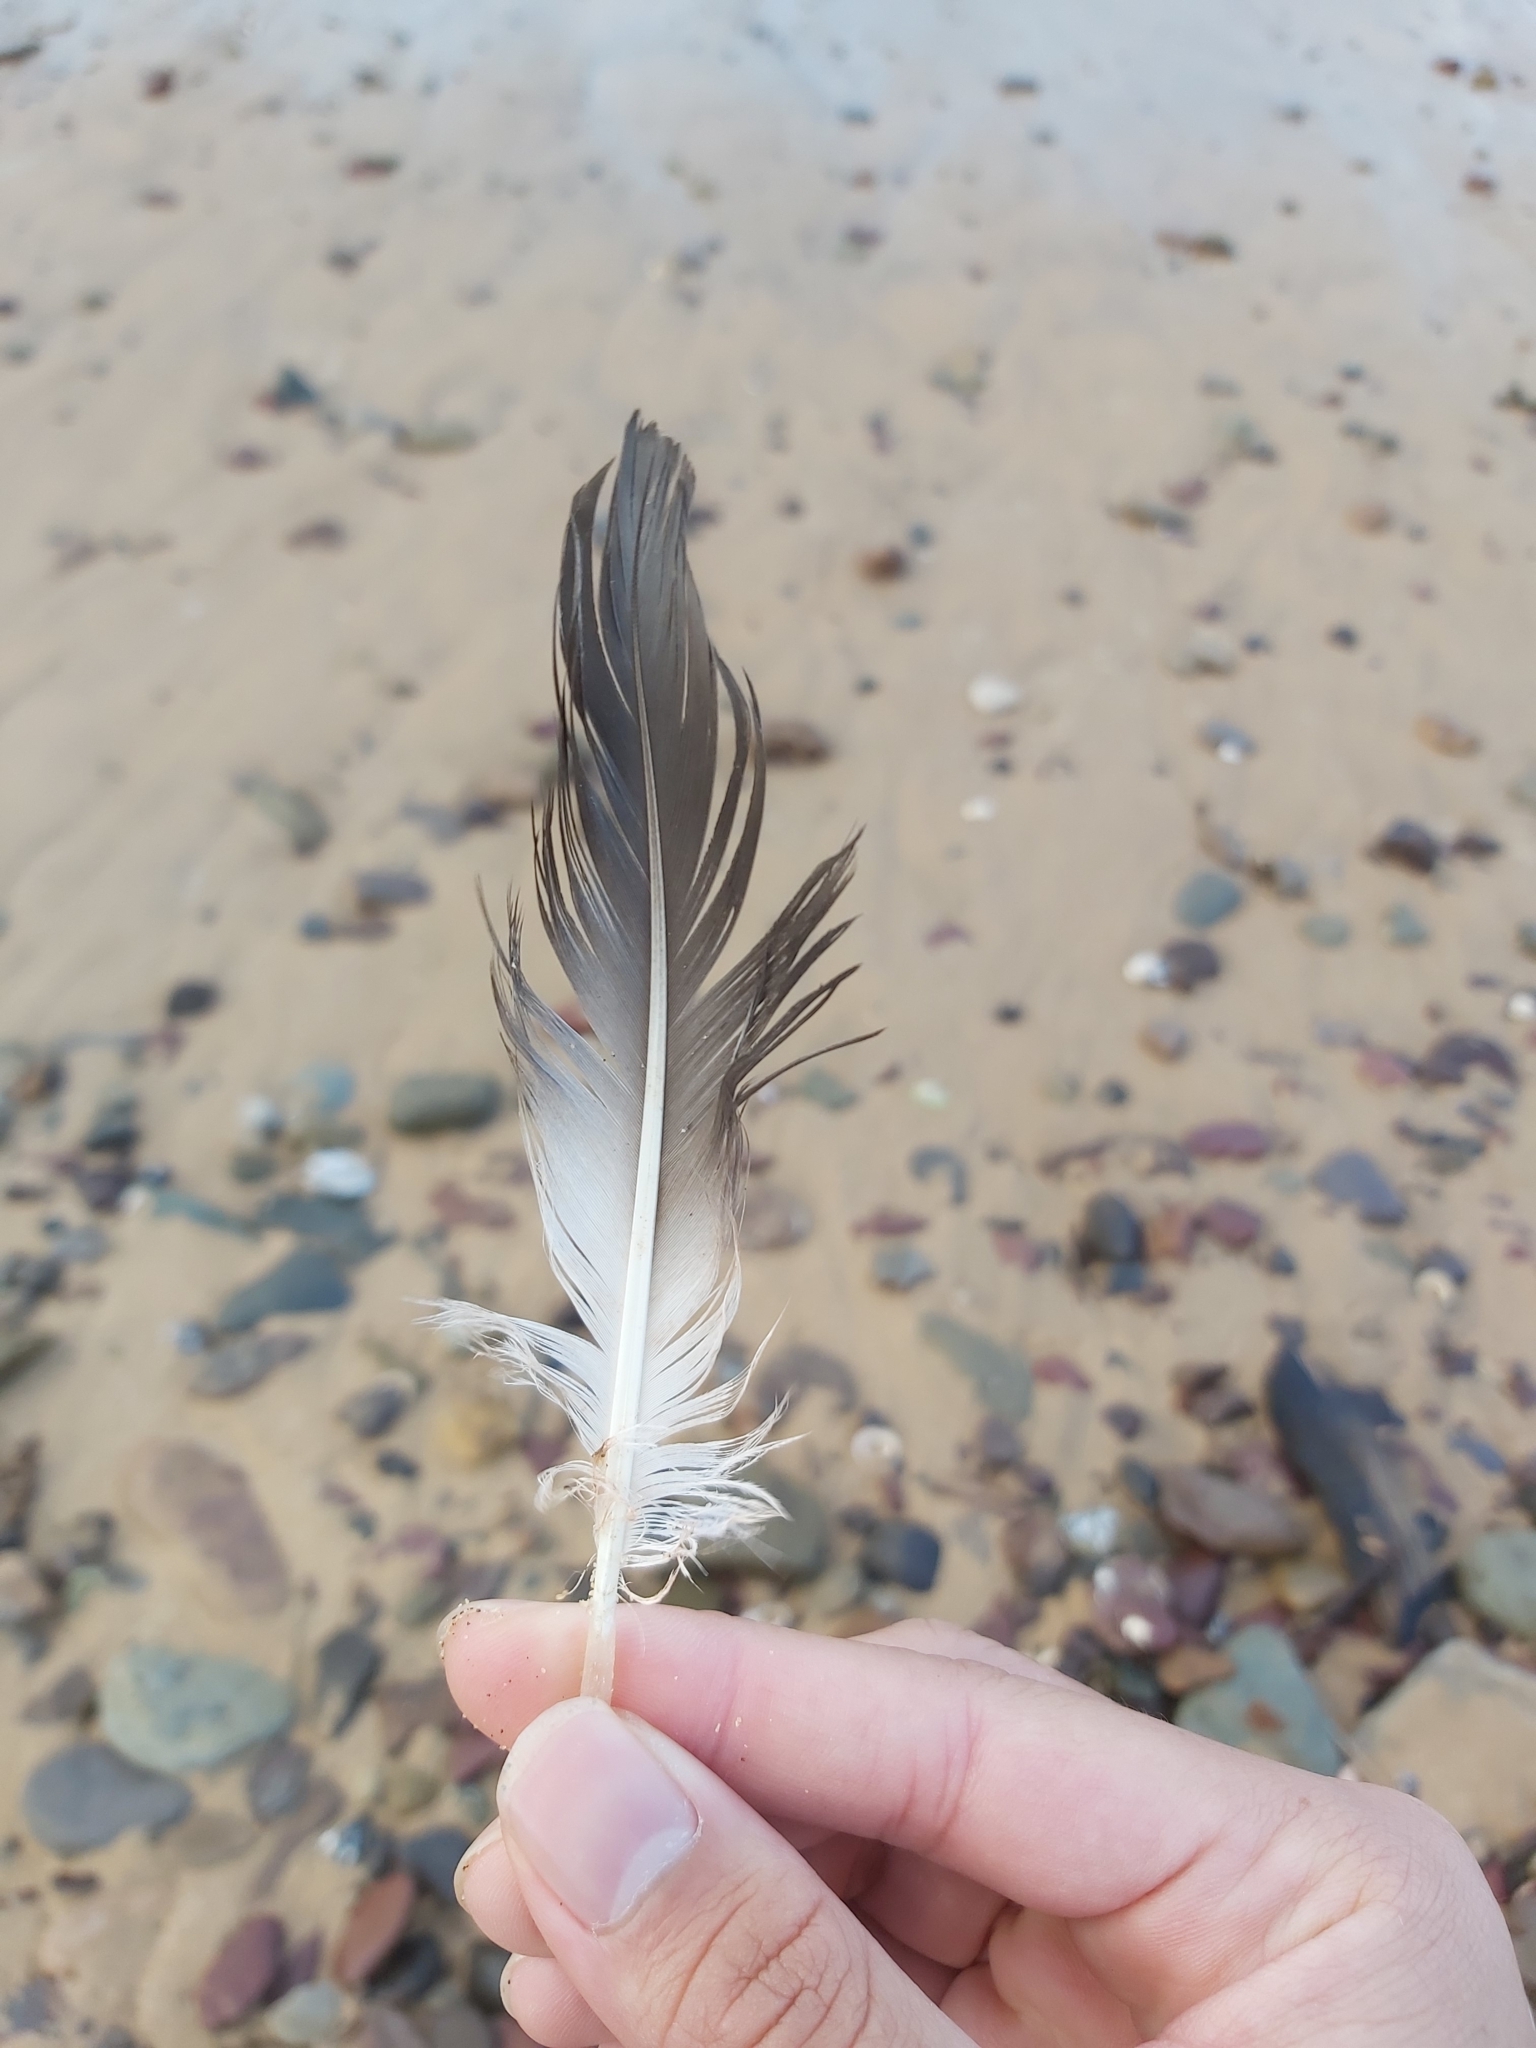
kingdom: Animalia
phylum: Chordata
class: Aves
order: Suliformes
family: Sulidae
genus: Morus
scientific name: Morus serrator
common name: Australasian gannet
